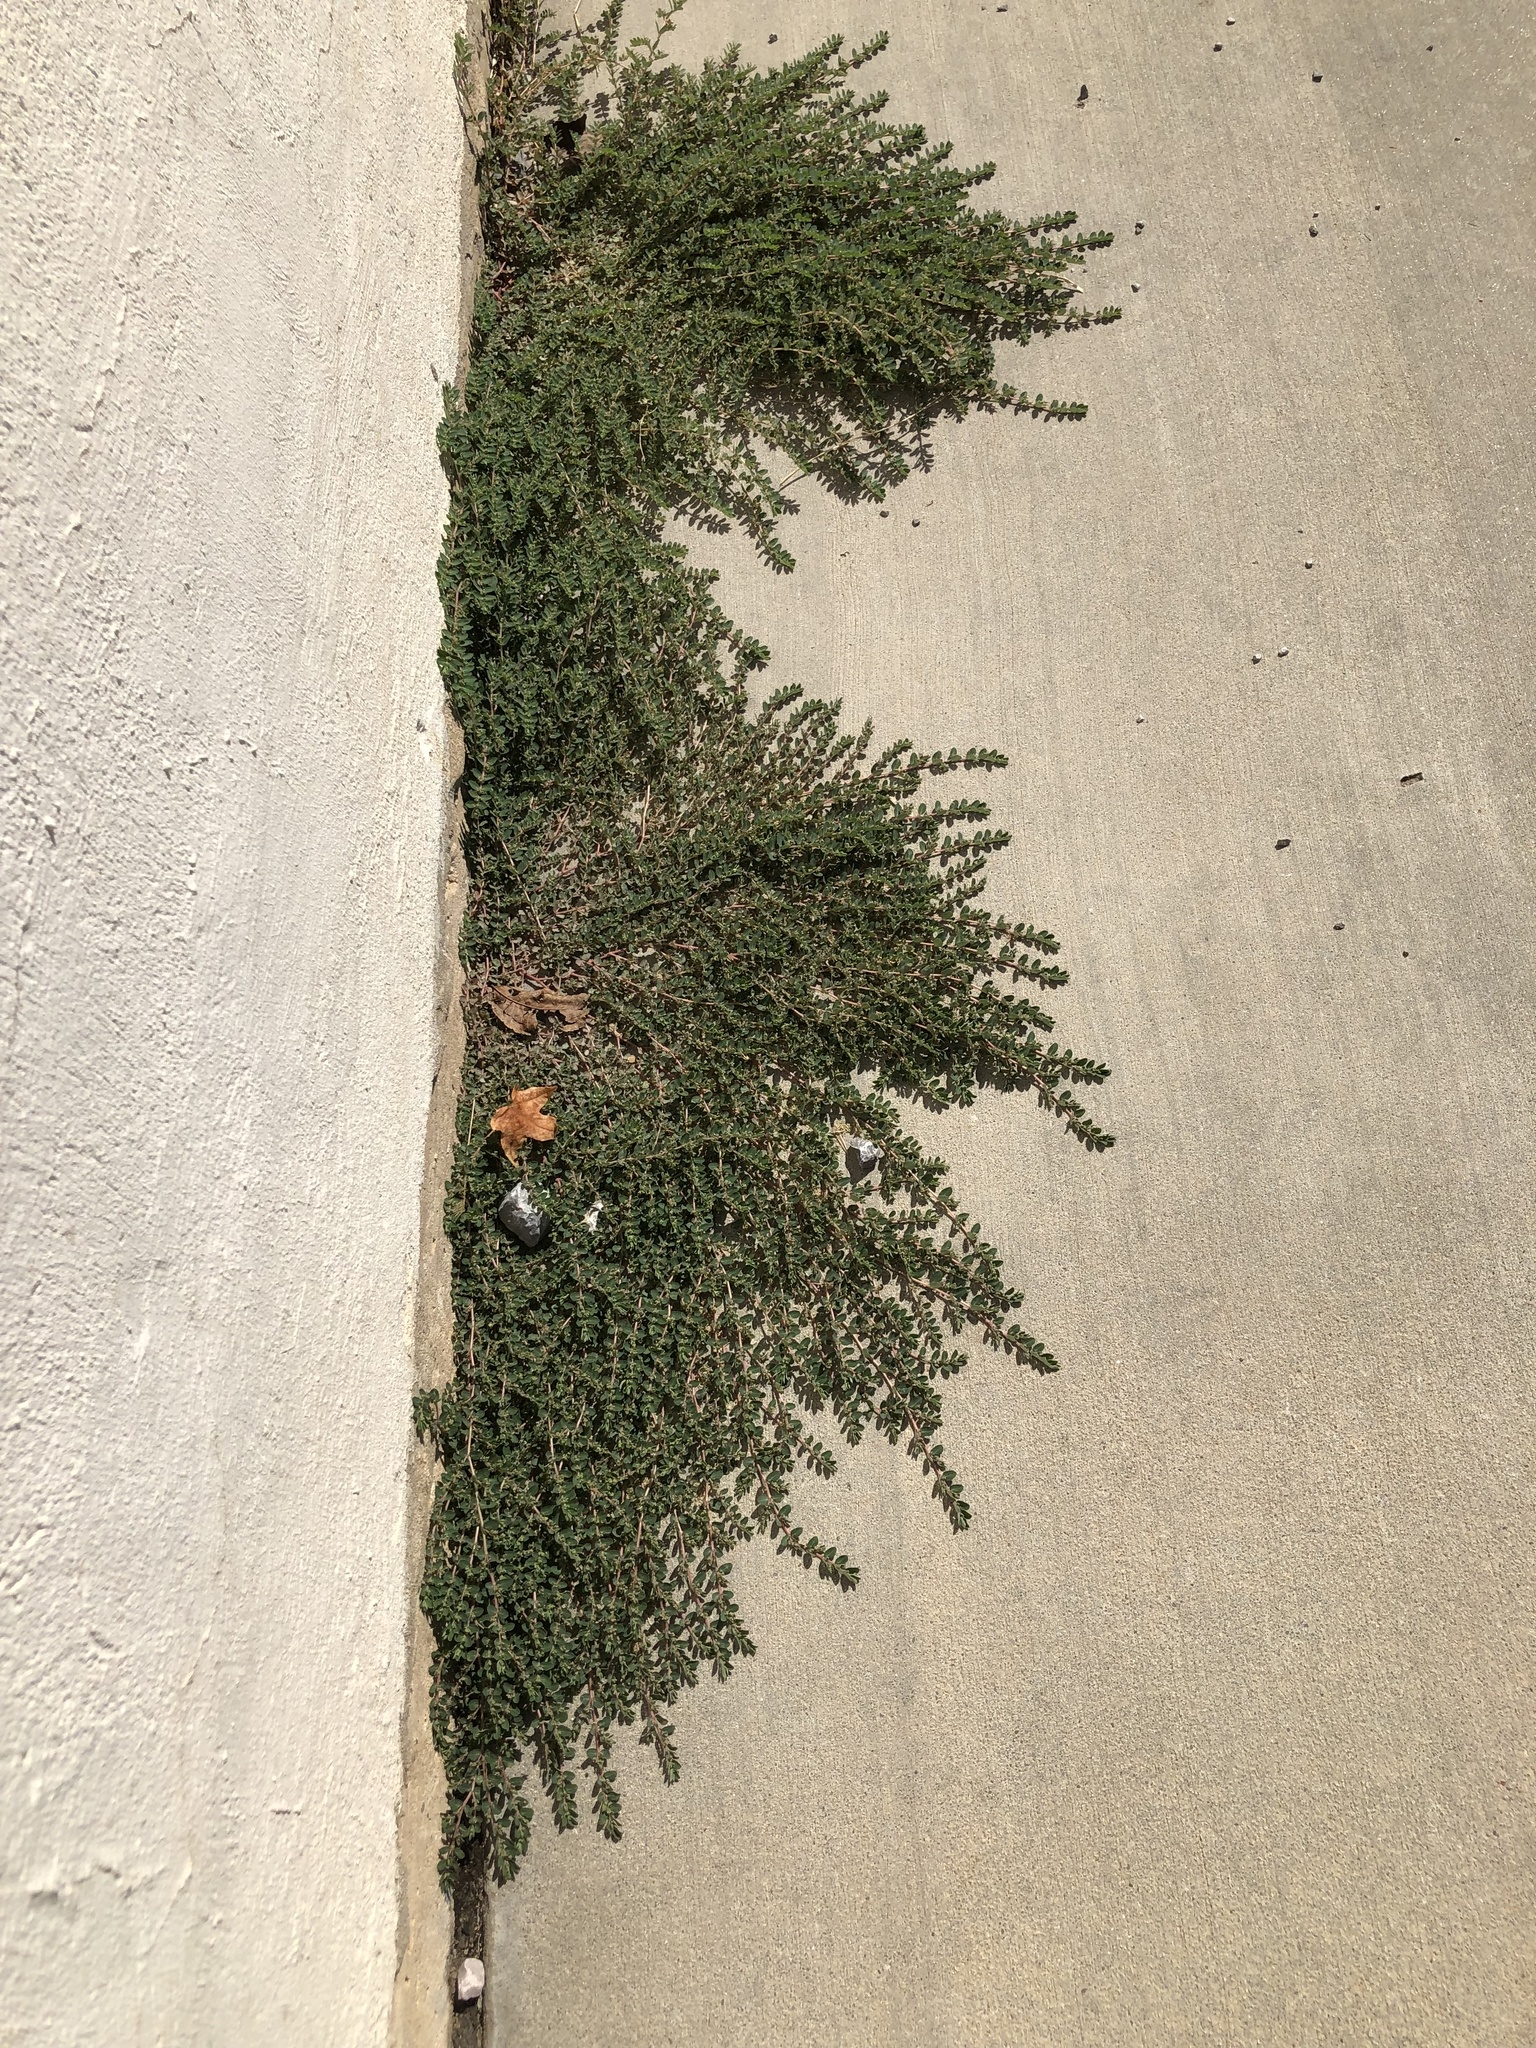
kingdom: Plantae
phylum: Tracheophyta
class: Magnoliopsida
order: Malpighiales
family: Euphorbiaceae
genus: Euphorbia
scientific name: Euphorbia prostrata
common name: Prostrate sandmat
